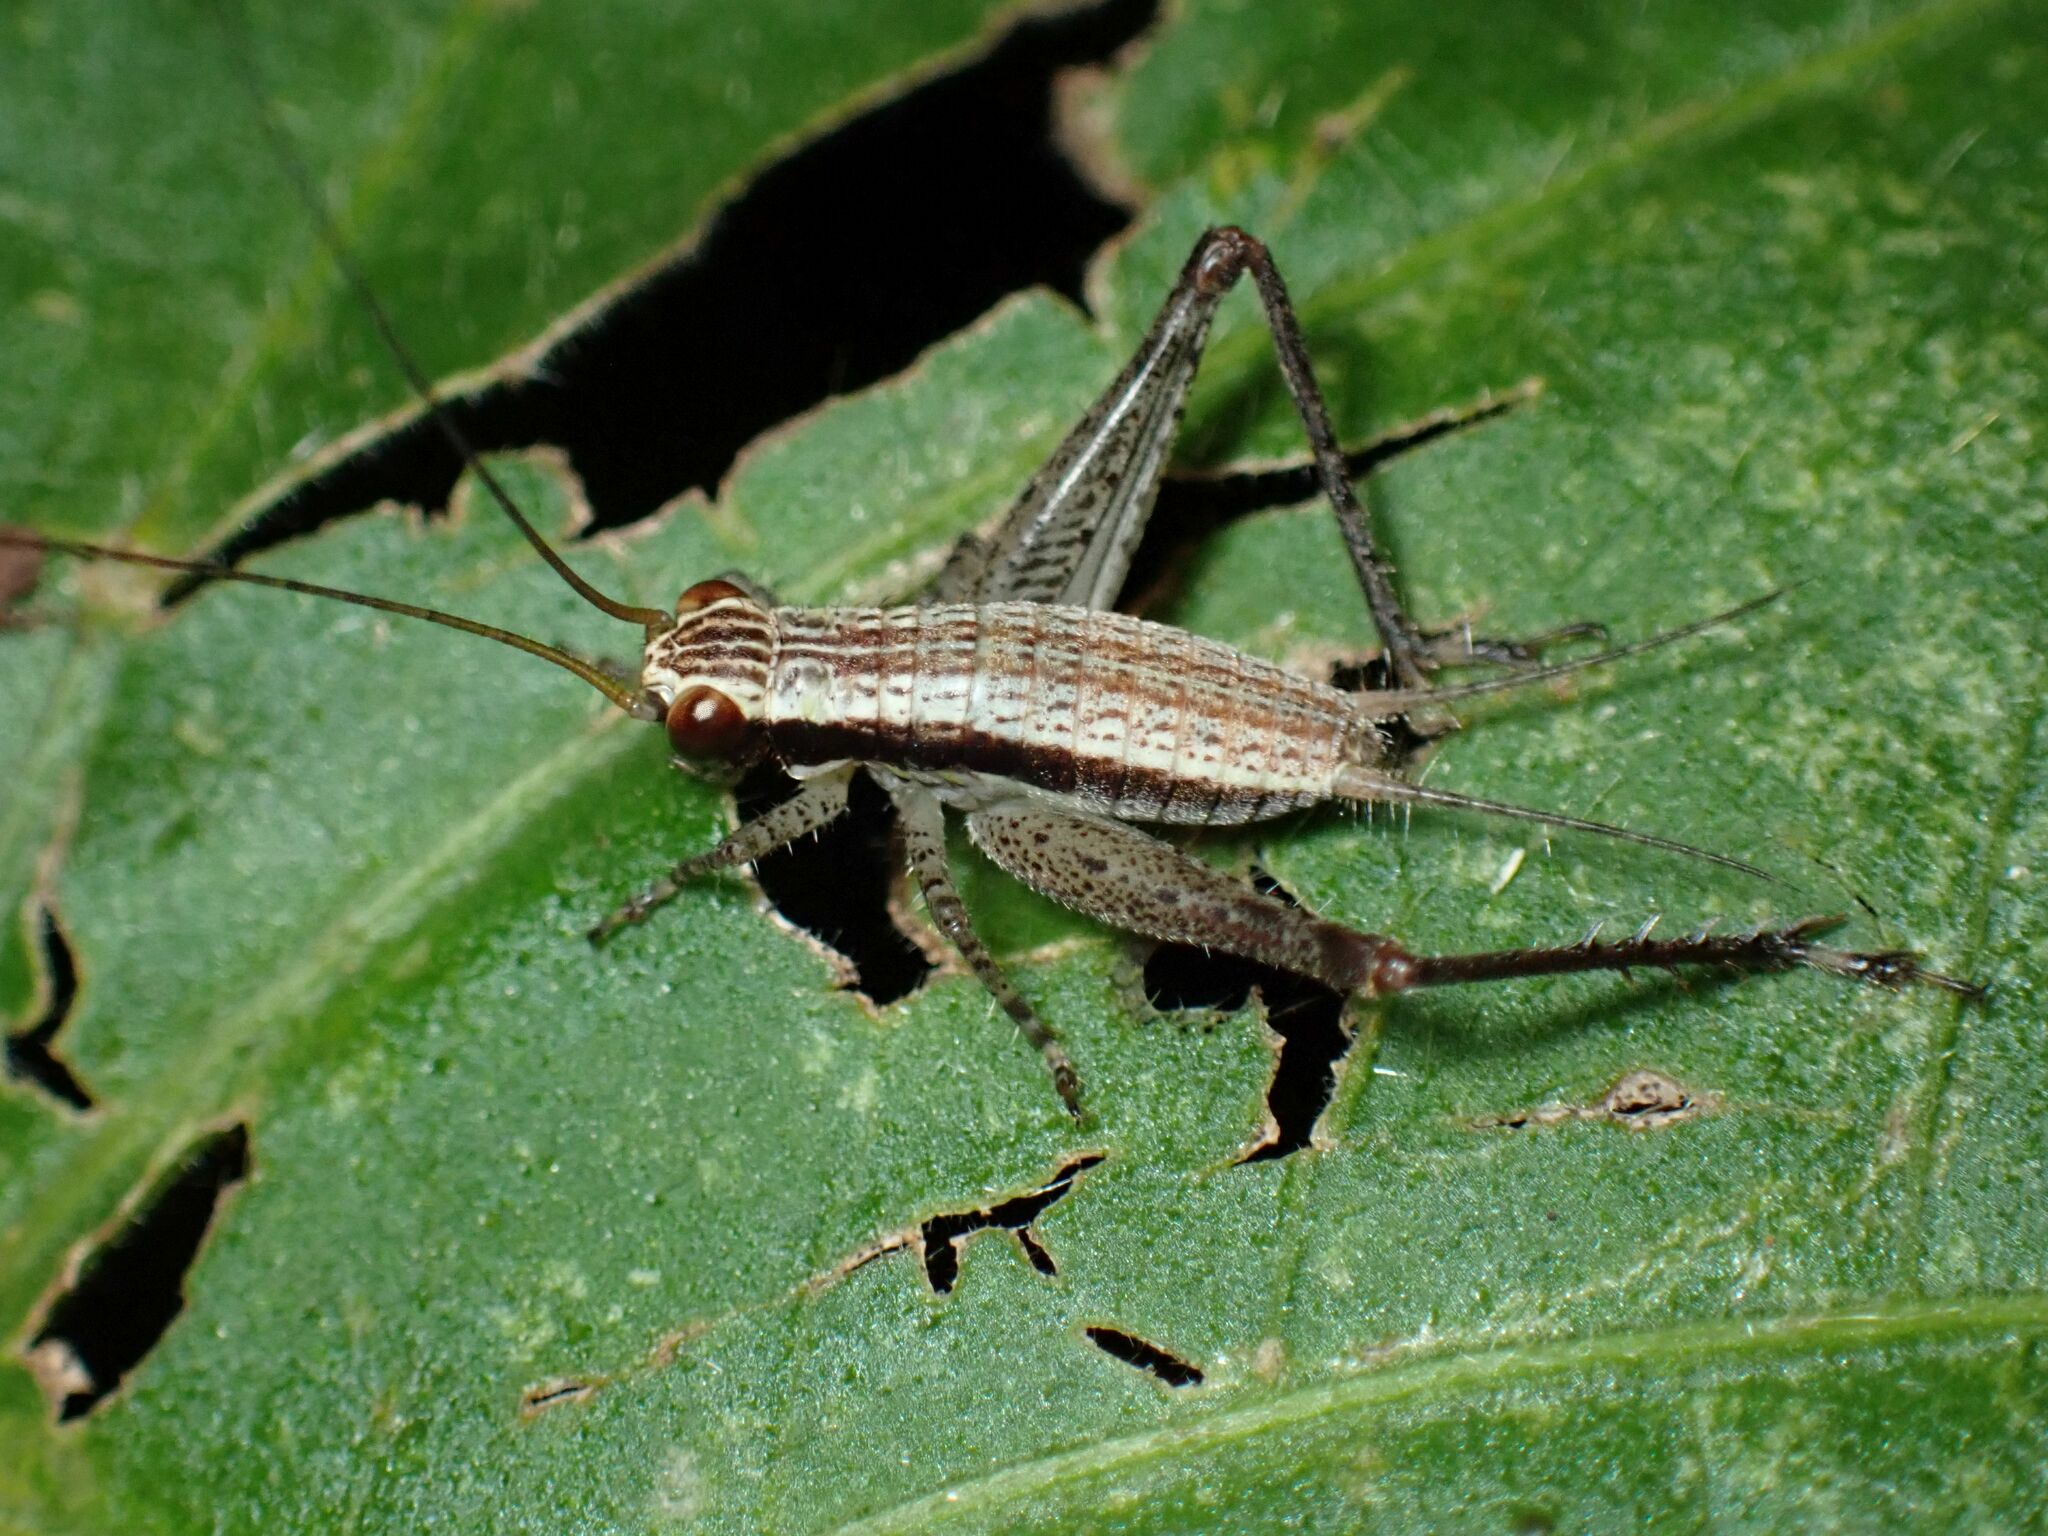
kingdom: Animalia
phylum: Arthropoda
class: Insecta
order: Orthoptera
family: Gryllidae
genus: Cardiodactylus
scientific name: Cardiodactylus novaeguineae
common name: Sad cricket
